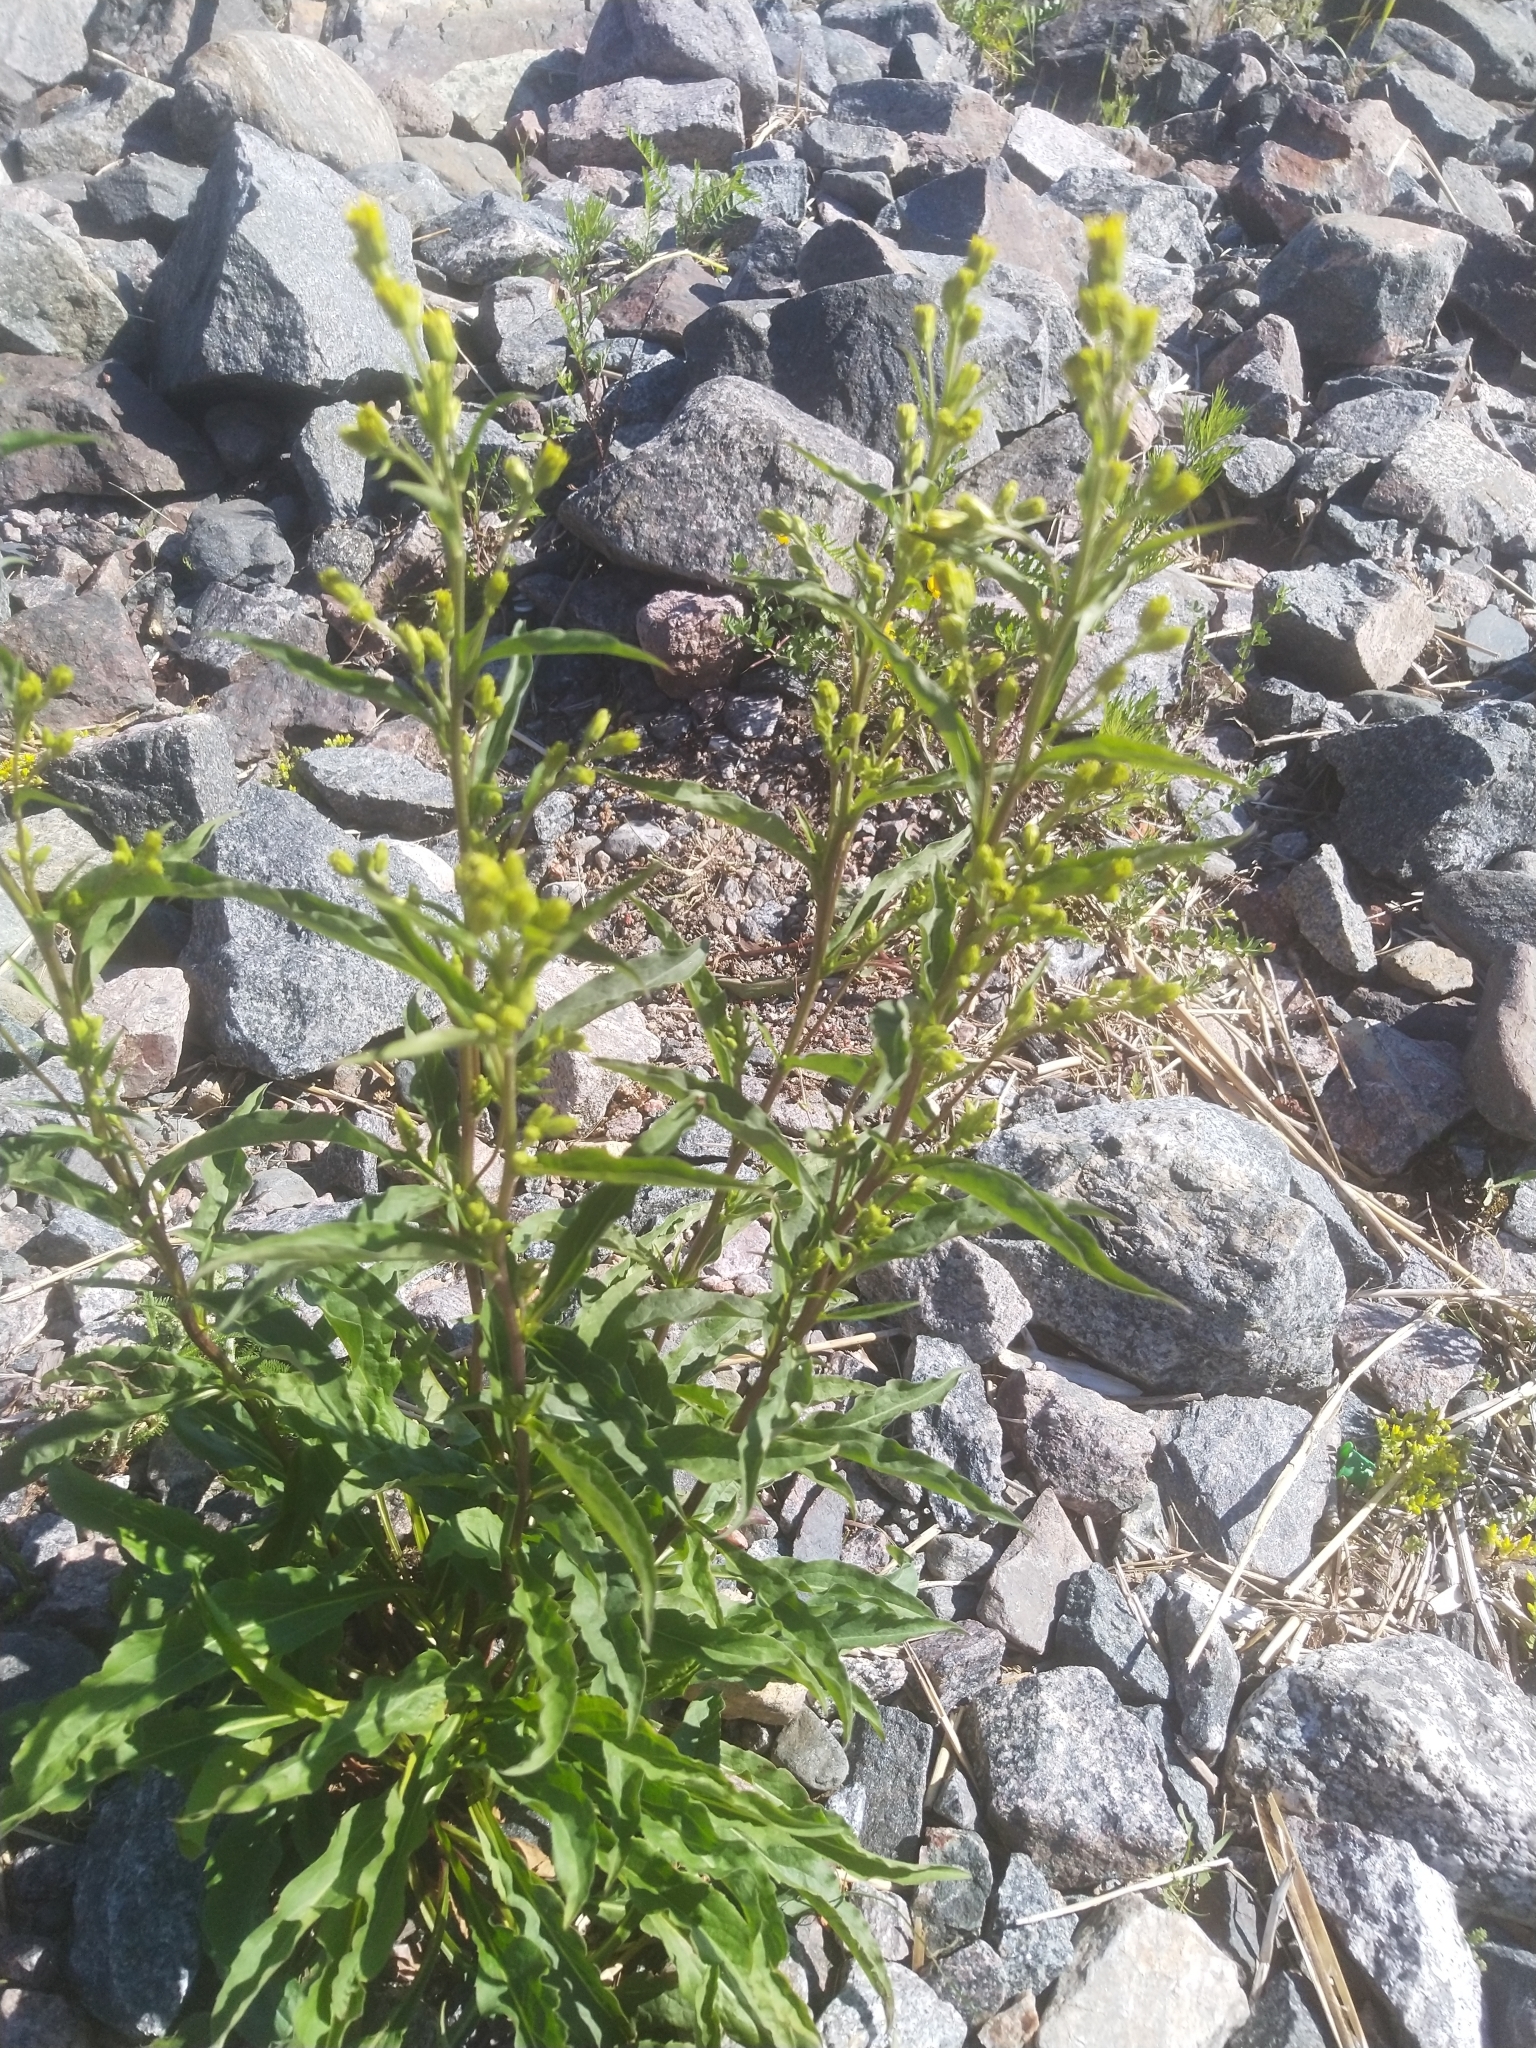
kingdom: Plantae
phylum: Tracheophyta
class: Magnoliopsida
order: Asterales
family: Asteraceae
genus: Solidago
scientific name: Solidago virgaurea
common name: Goldenrod
